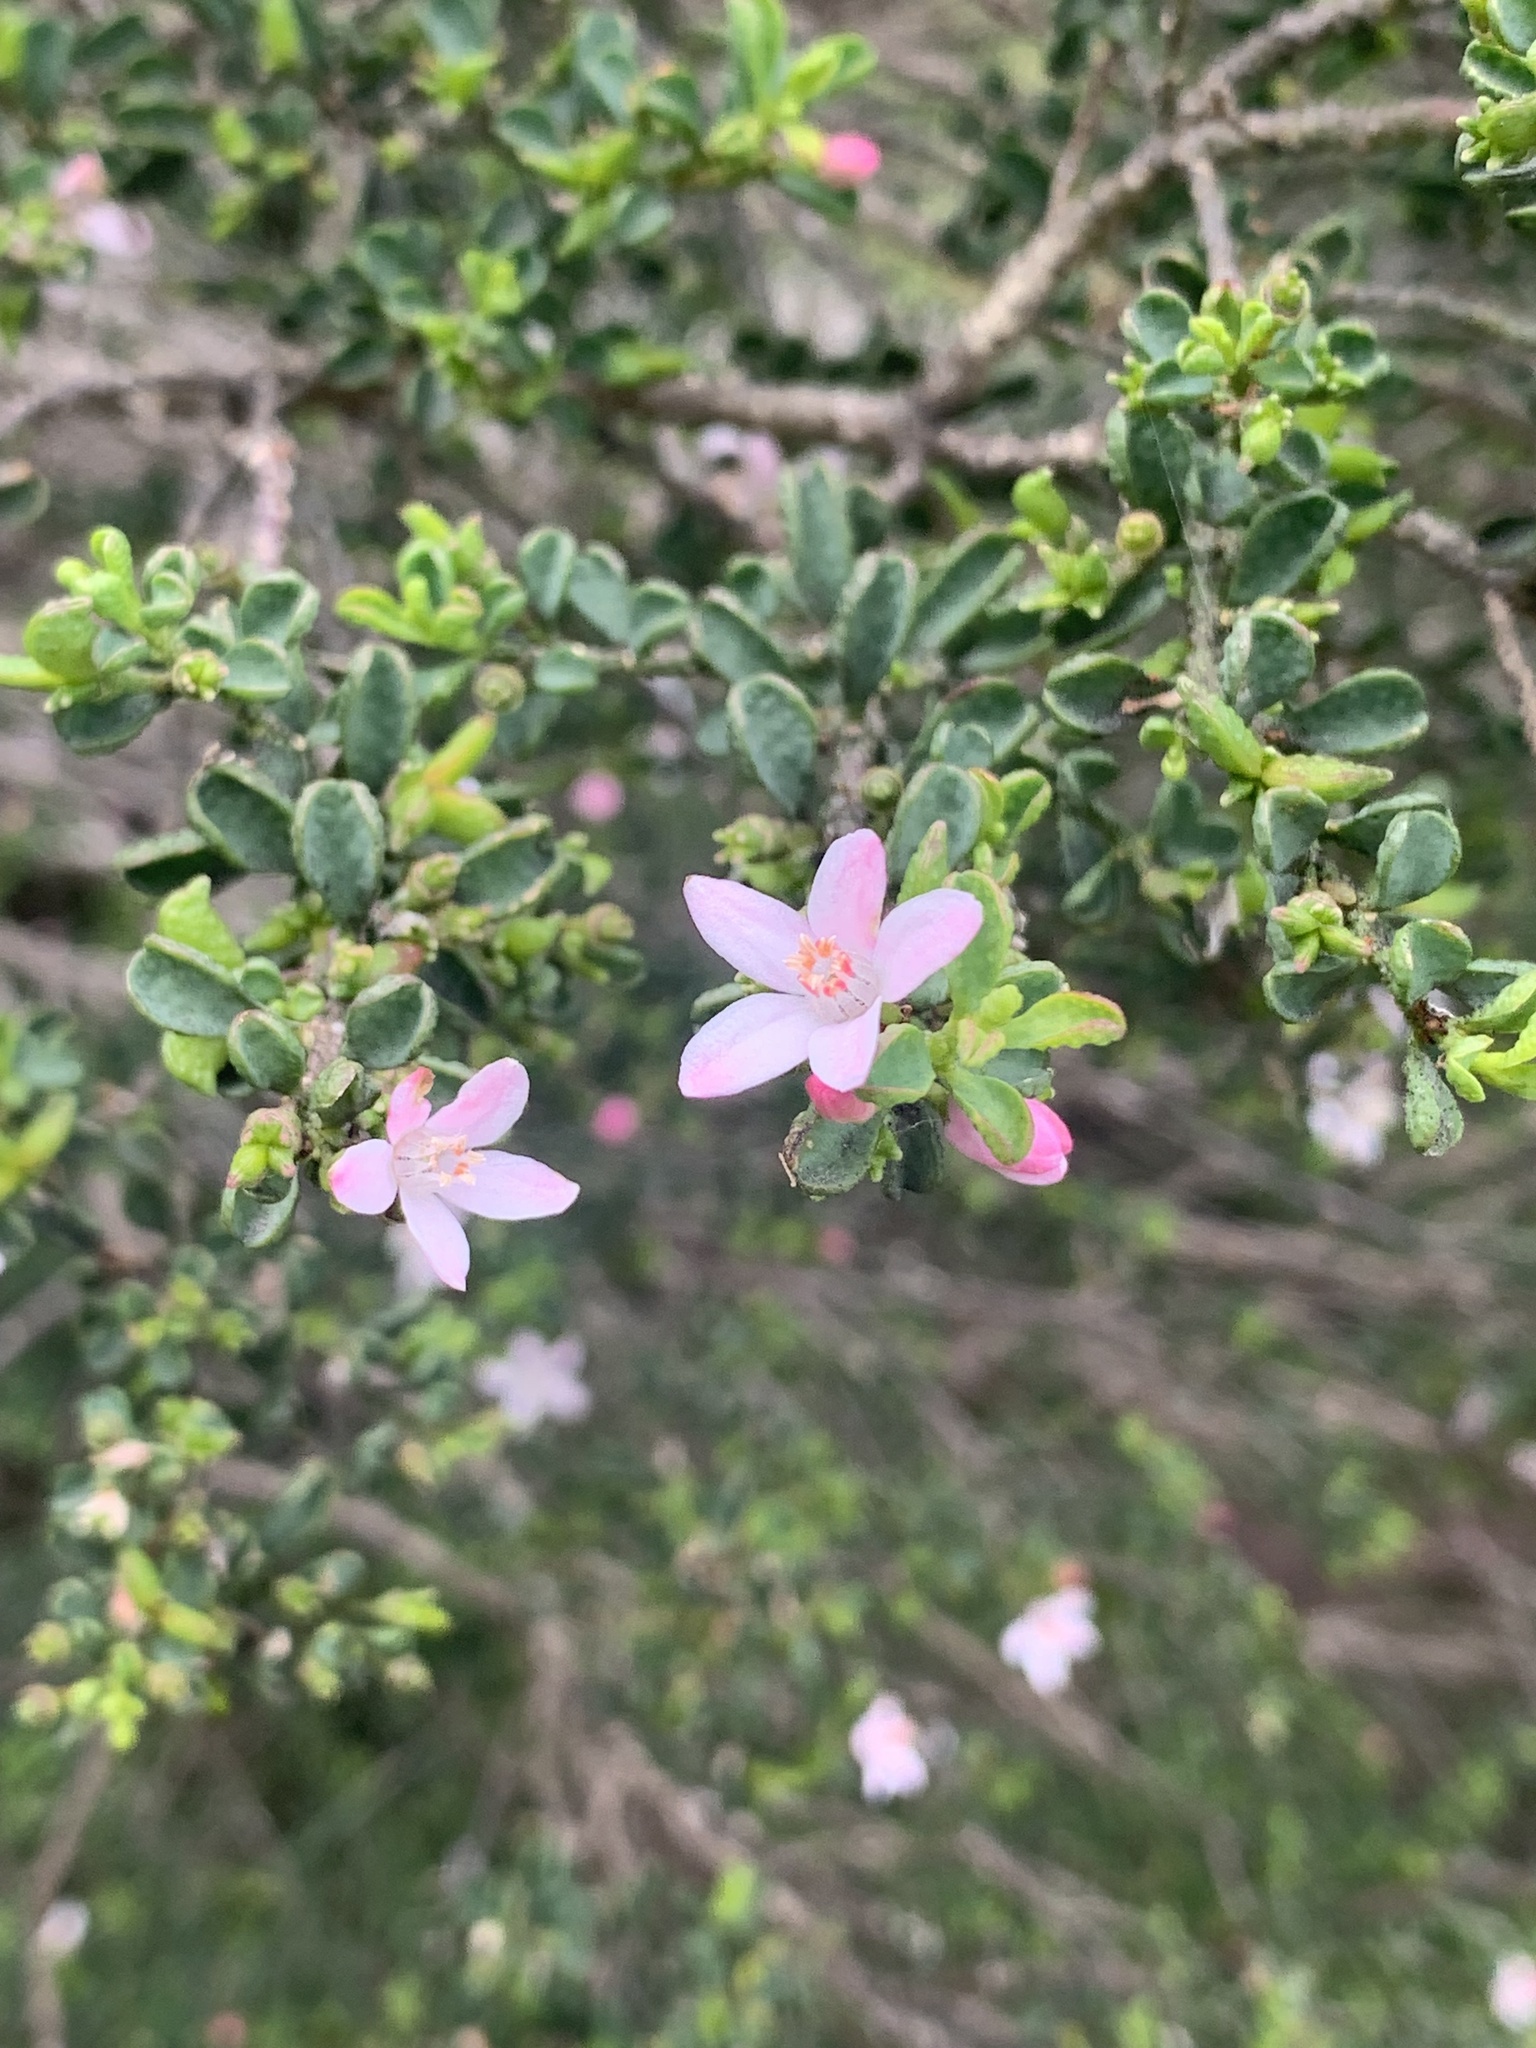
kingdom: Plantae
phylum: Tracheophyta
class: Magnoliopsida
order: Sapindales
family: Rutaceae
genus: Philotheca
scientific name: Philotheca verrucosa
